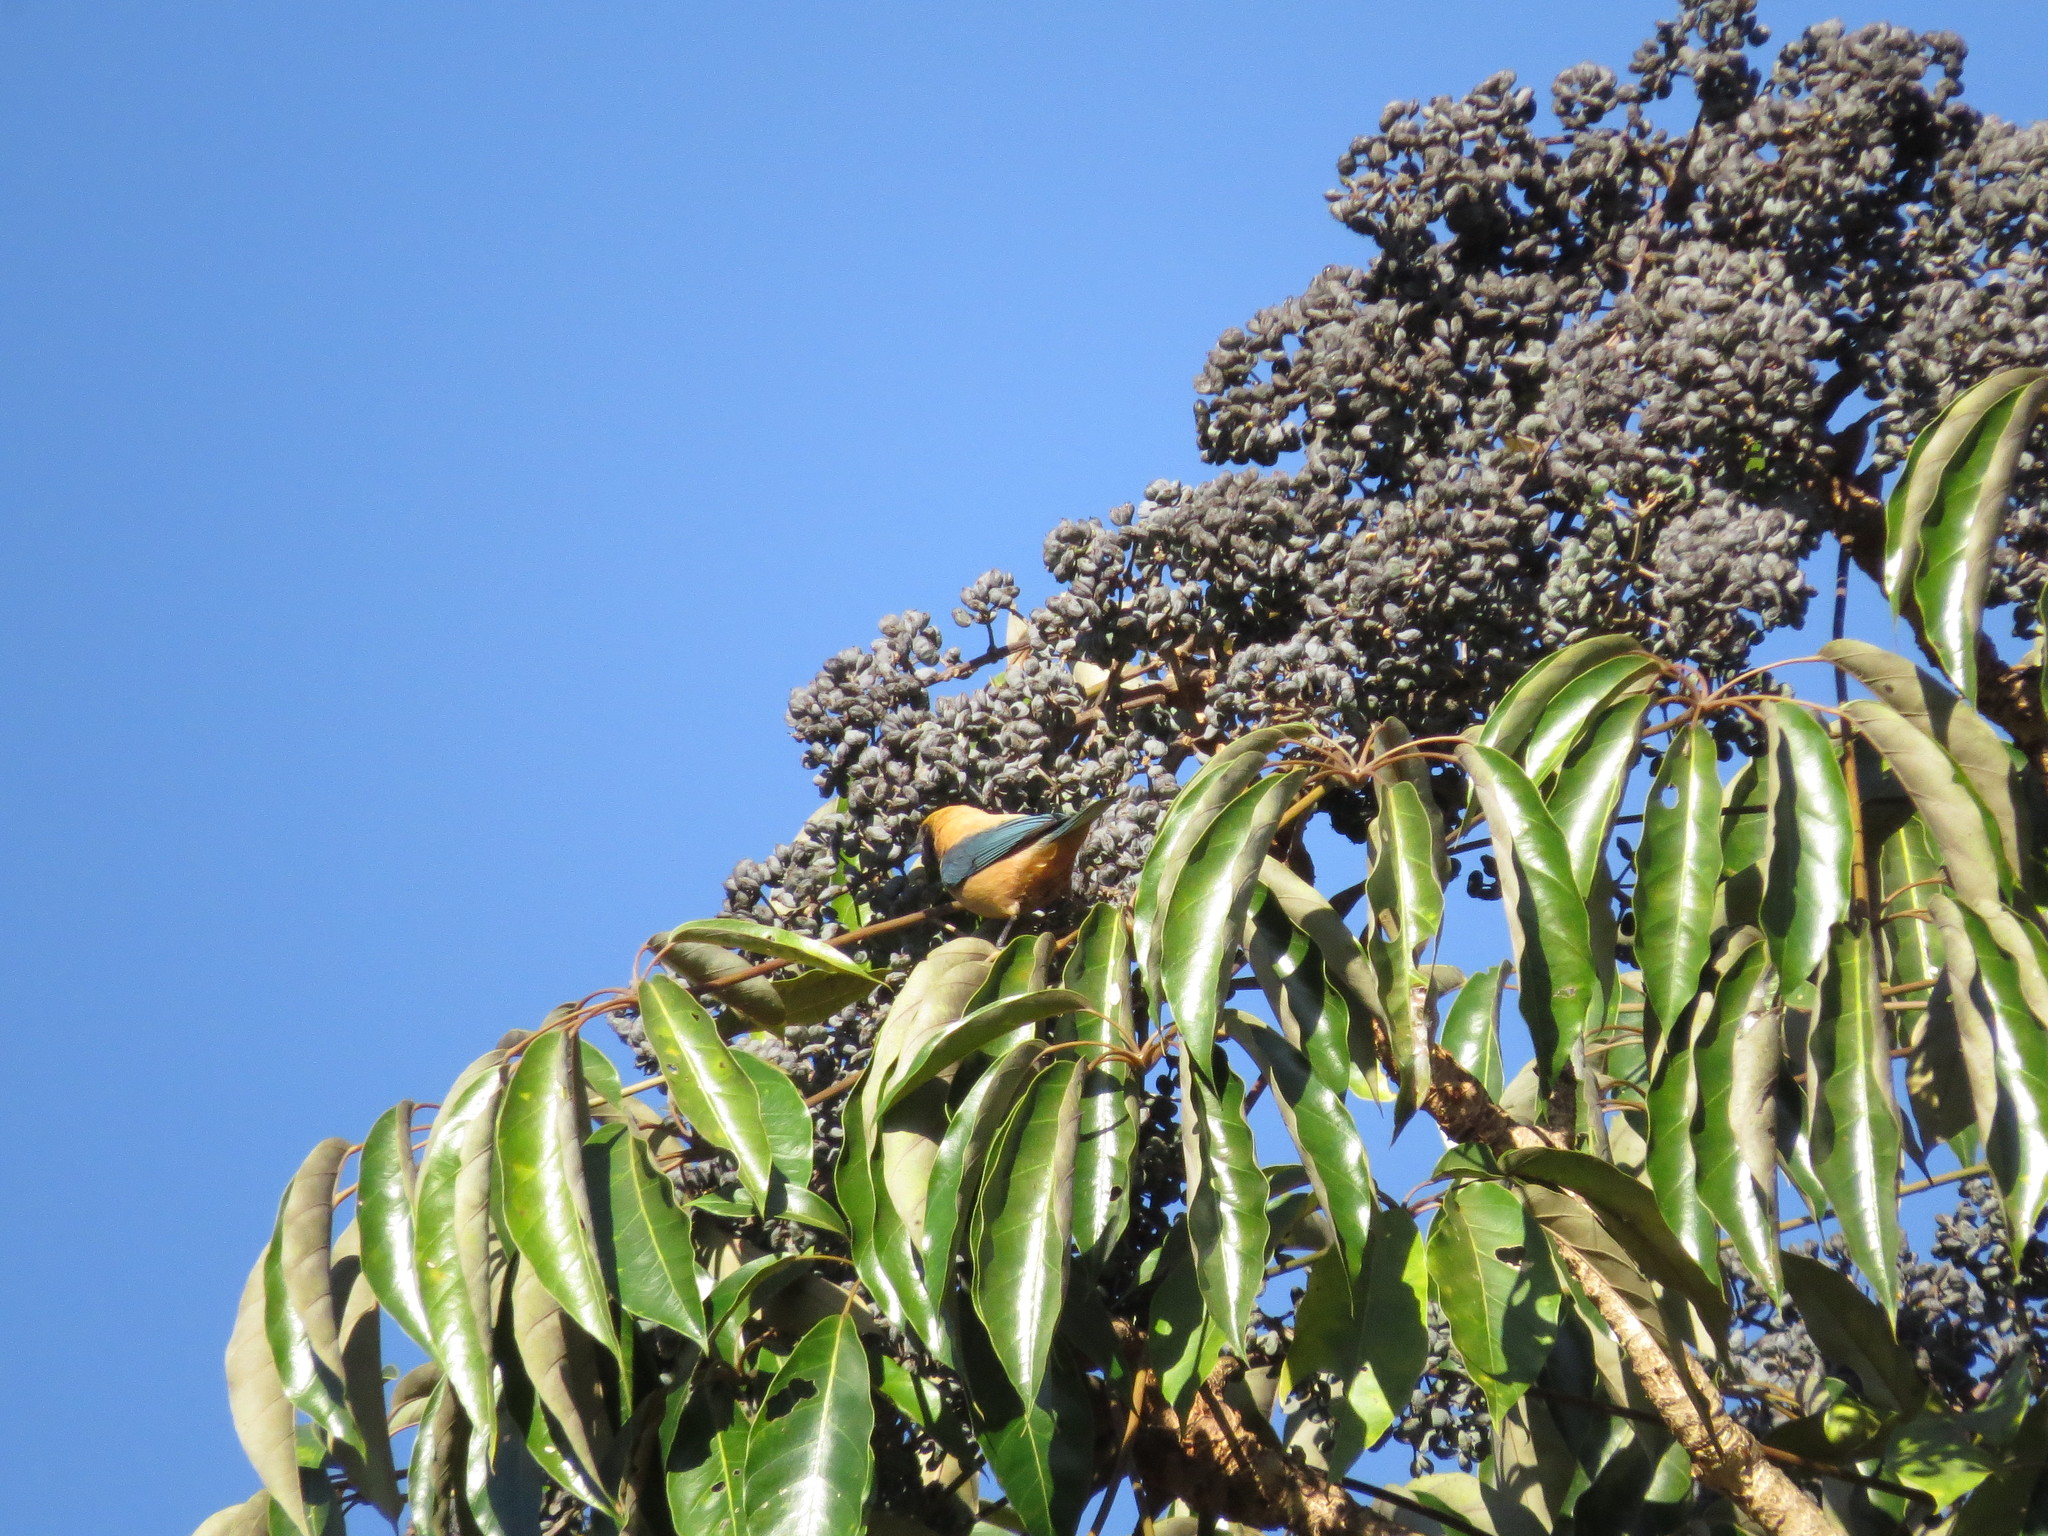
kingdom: Plantae
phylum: Tracheophyta
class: Magnoliopsida
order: Apiales
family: Araliaceae
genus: Didymopanax
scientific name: Didymopanax morototoni
